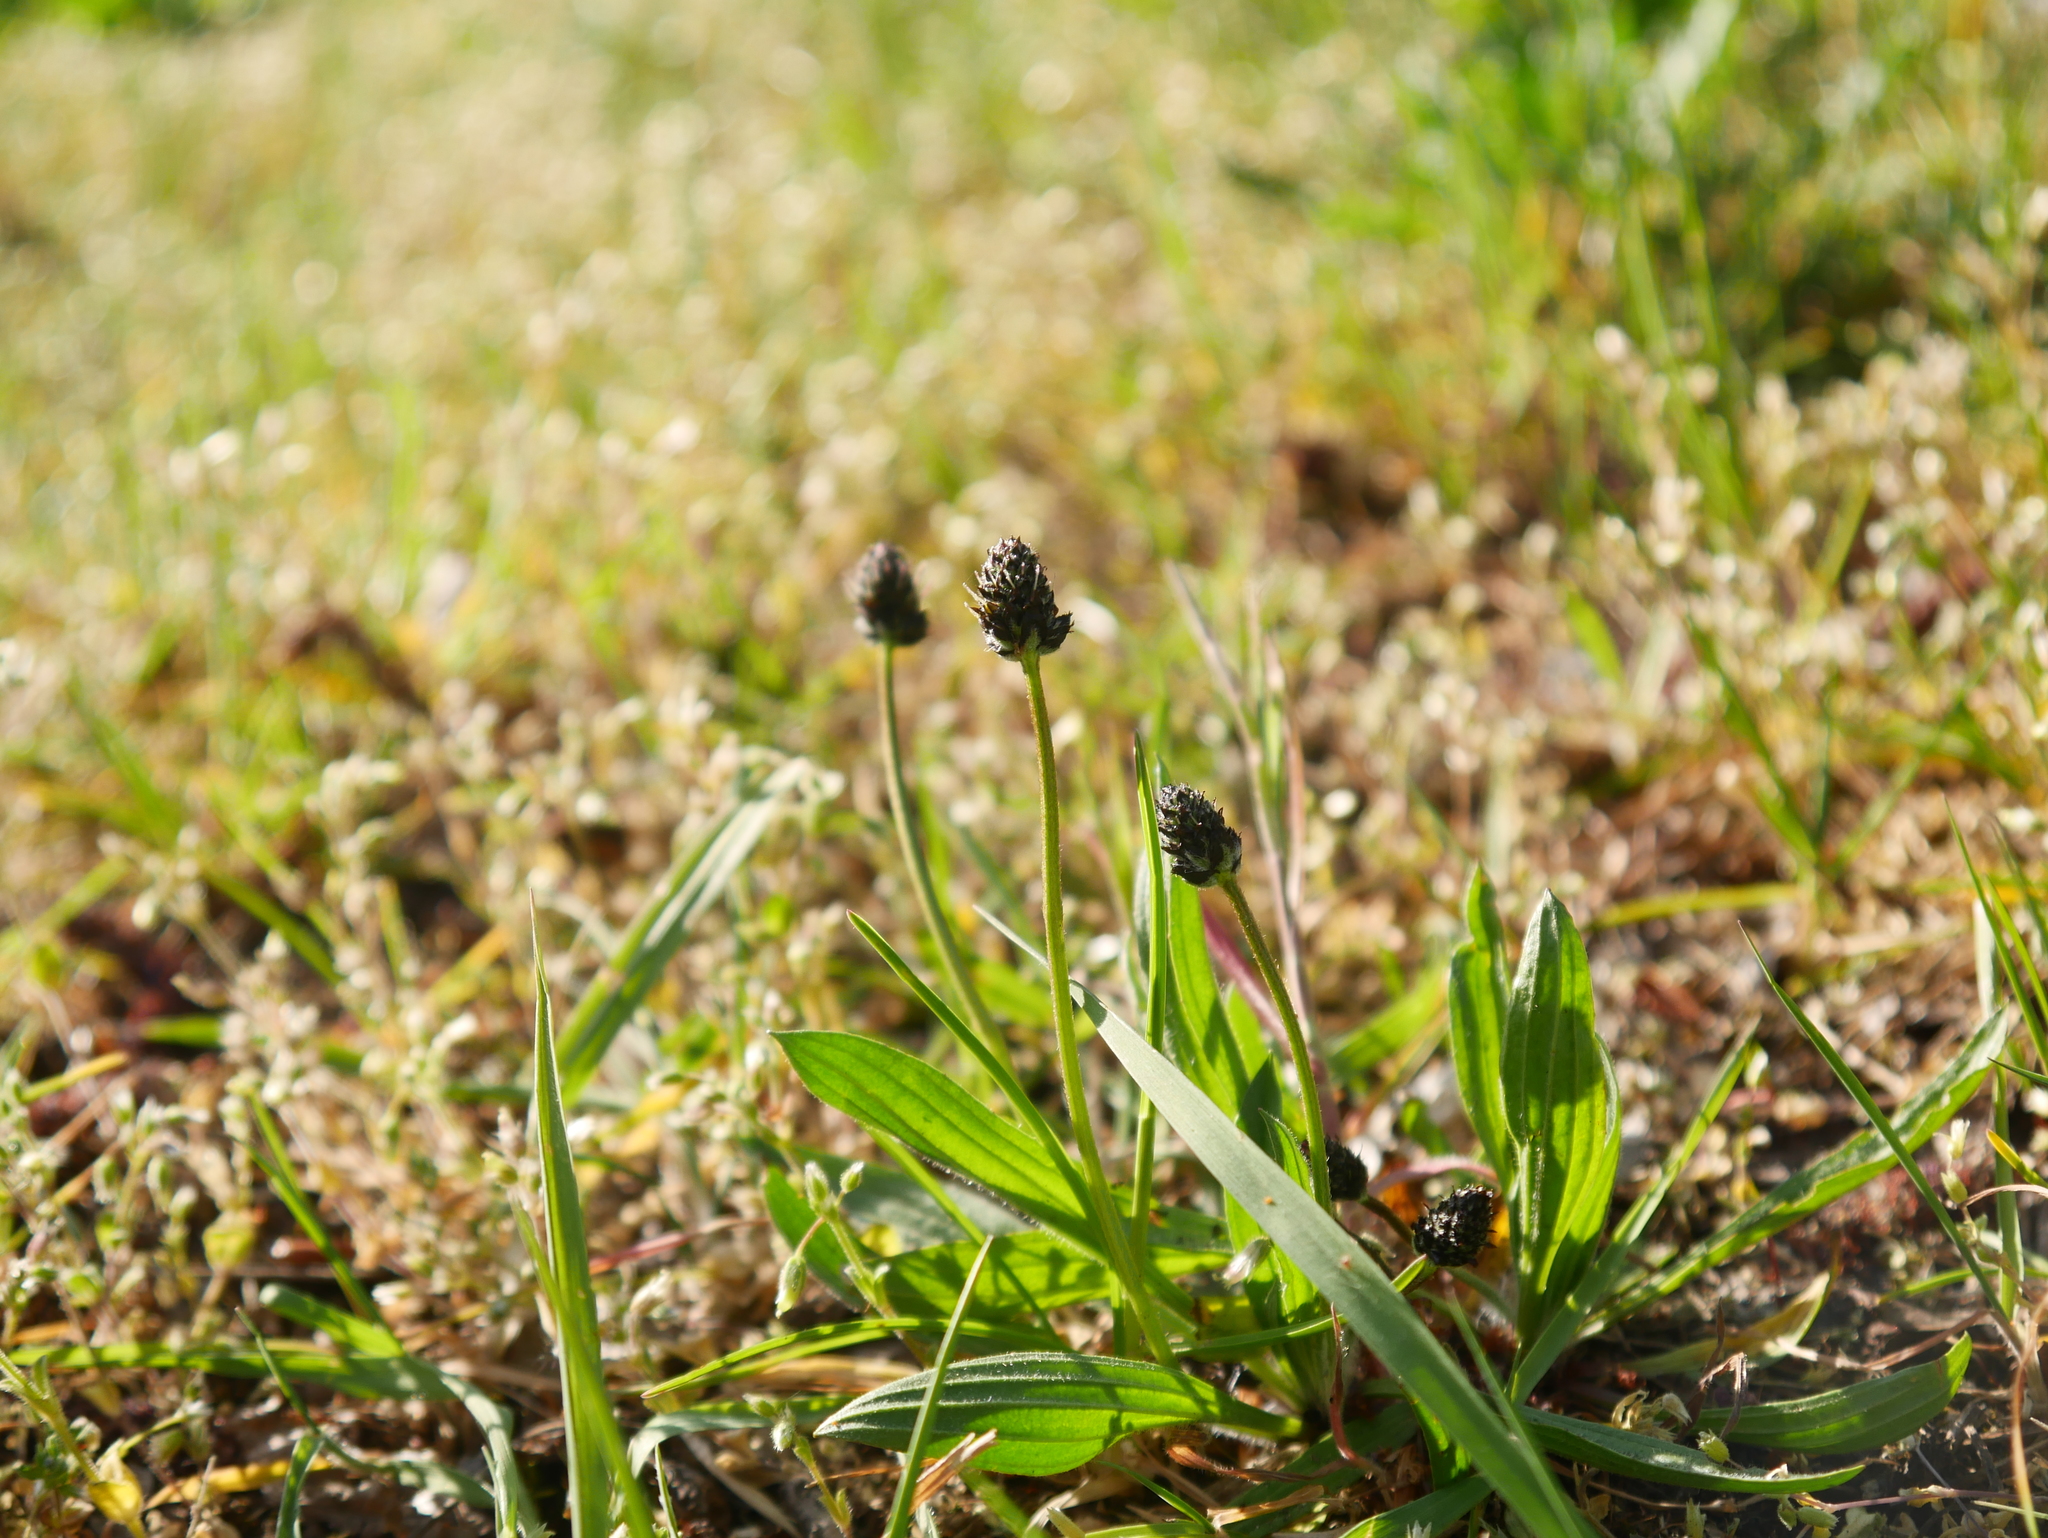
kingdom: Plantae
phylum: Tracheophyta
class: Magnoliopsida
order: Lamiales
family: Plantaginaceae
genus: Plantago
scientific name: Plantago lanceolata
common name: Ribwort plantain
